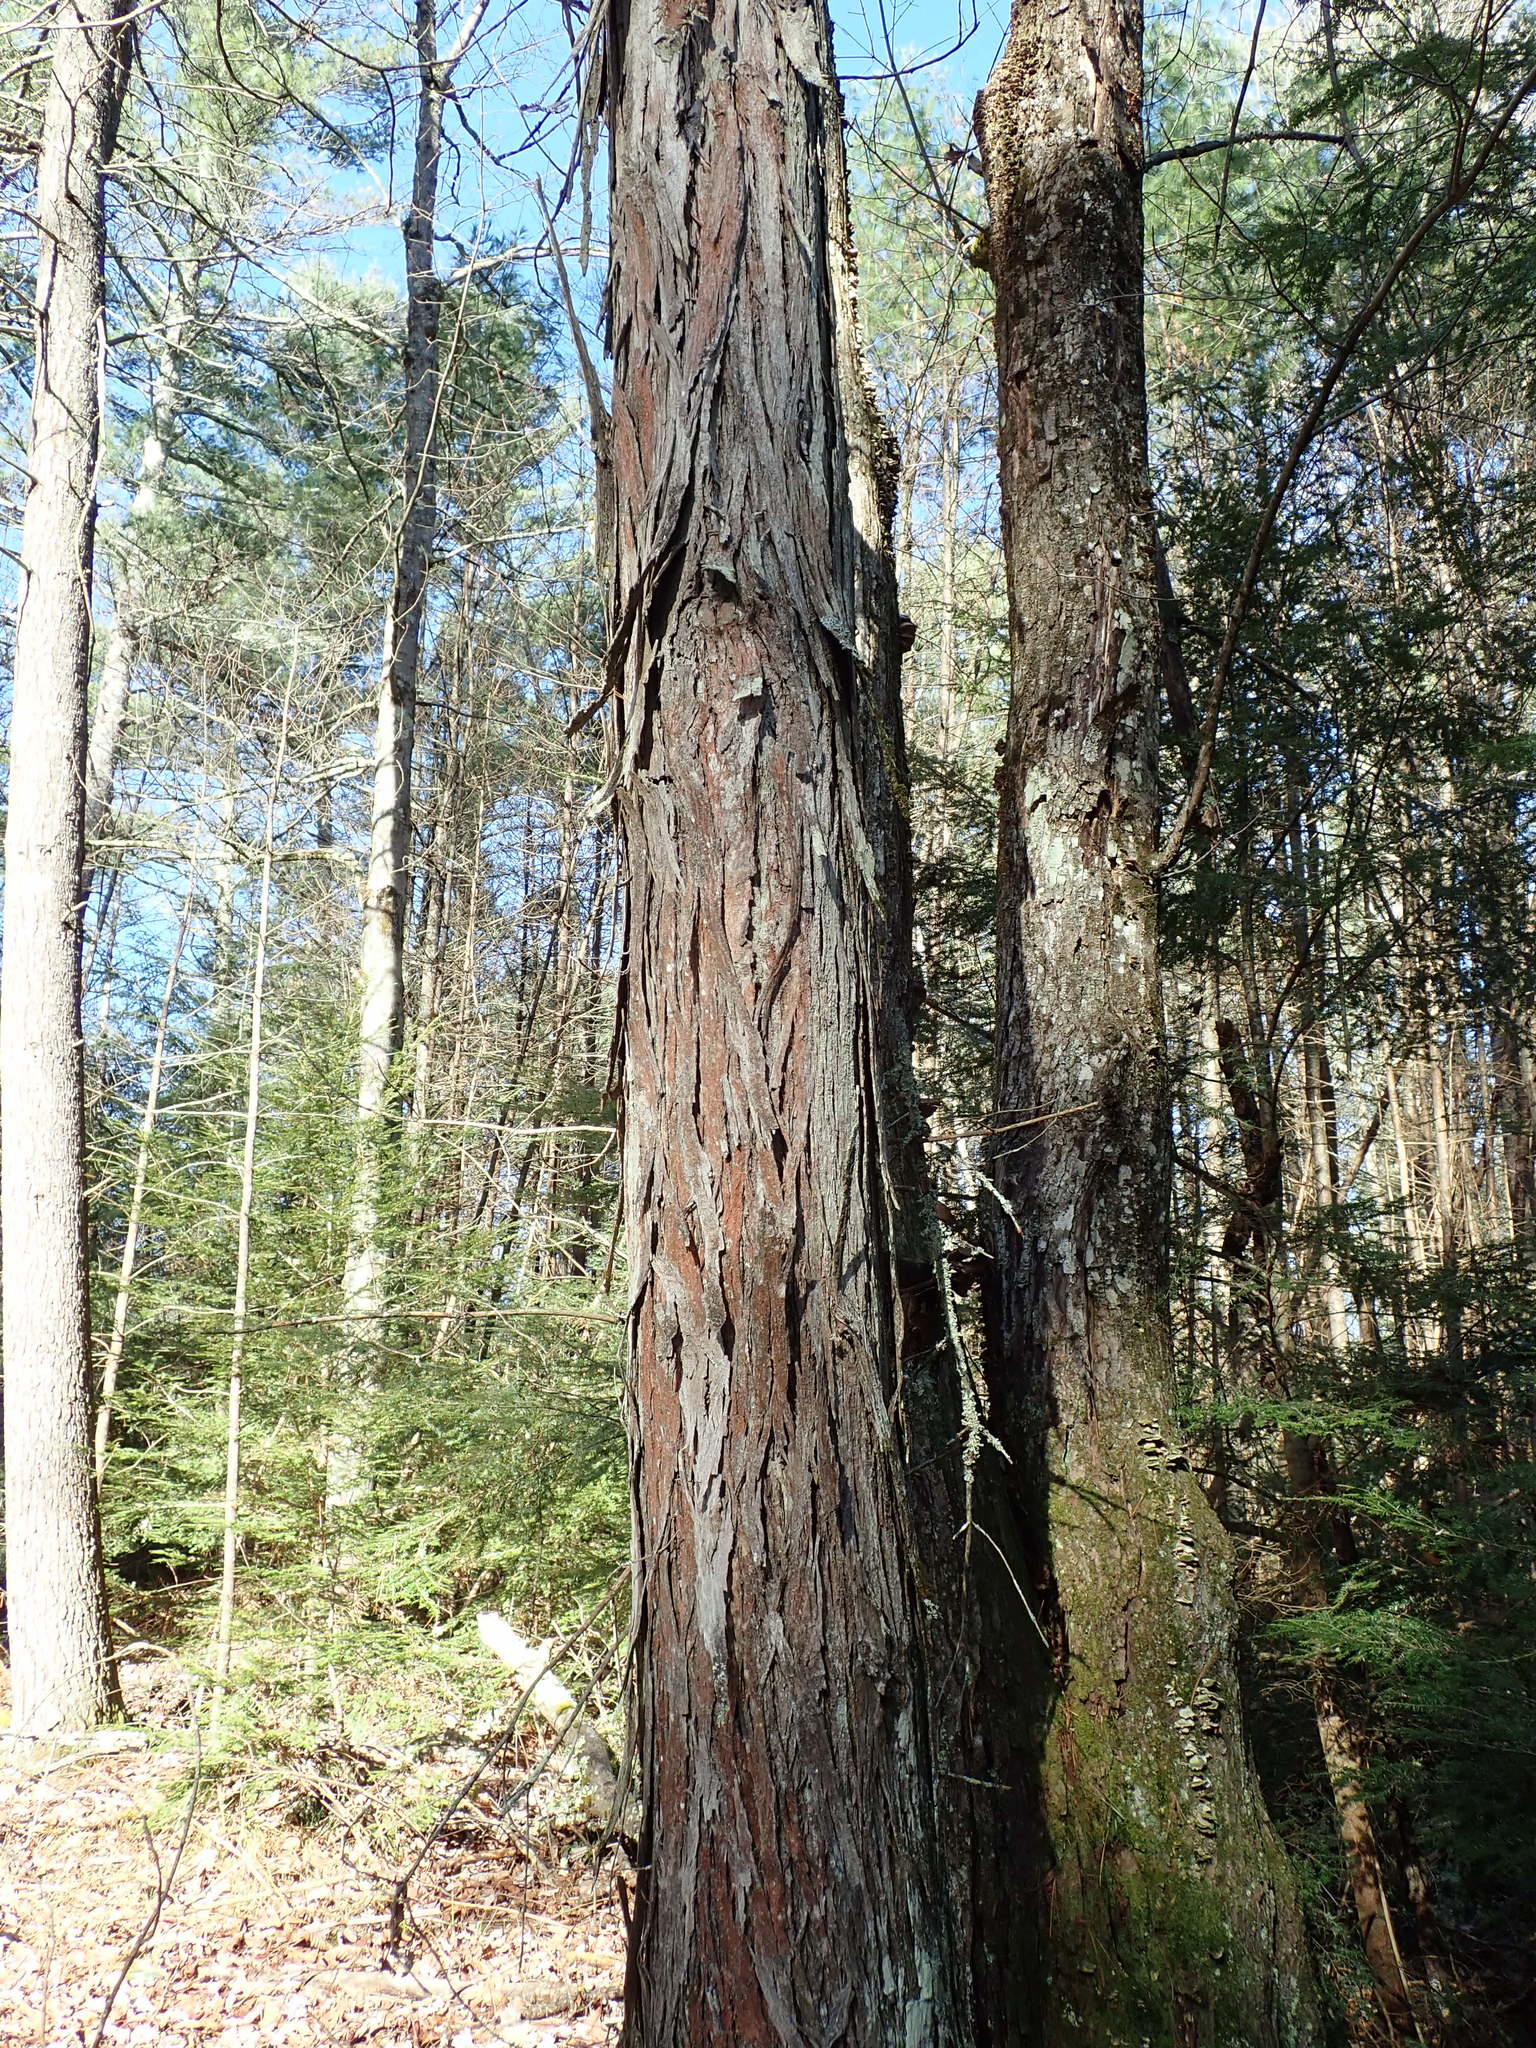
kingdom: Plantae
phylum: Tracheophyta
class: Magnoliopsida
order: Fagales
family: Juglandaceae
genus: Carya
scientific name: Carya ovata
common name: Shagbark hickory
